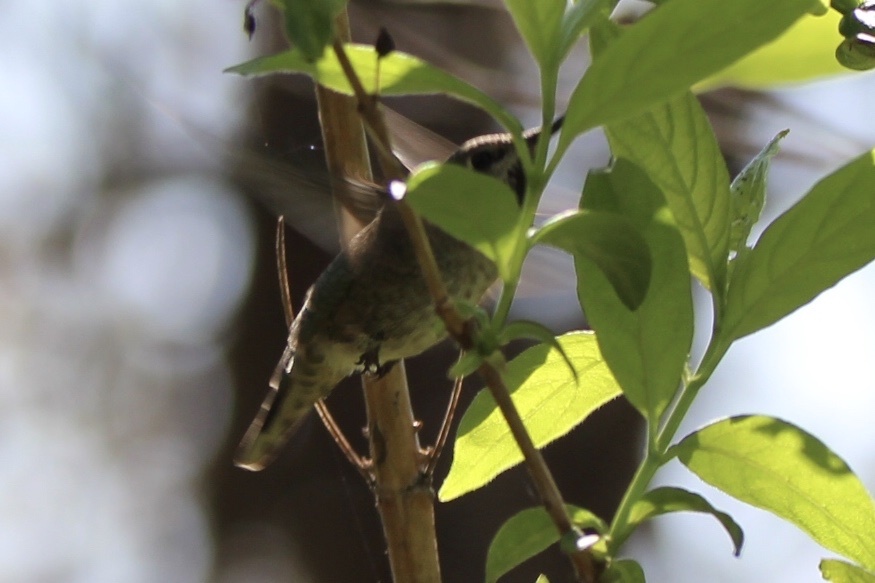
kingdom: Animalia
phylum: Chordata
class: Aves
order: Apodiformes
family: Trochilidae
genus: Calypte
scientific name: Calypte anna
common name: Anna's hummingbird
